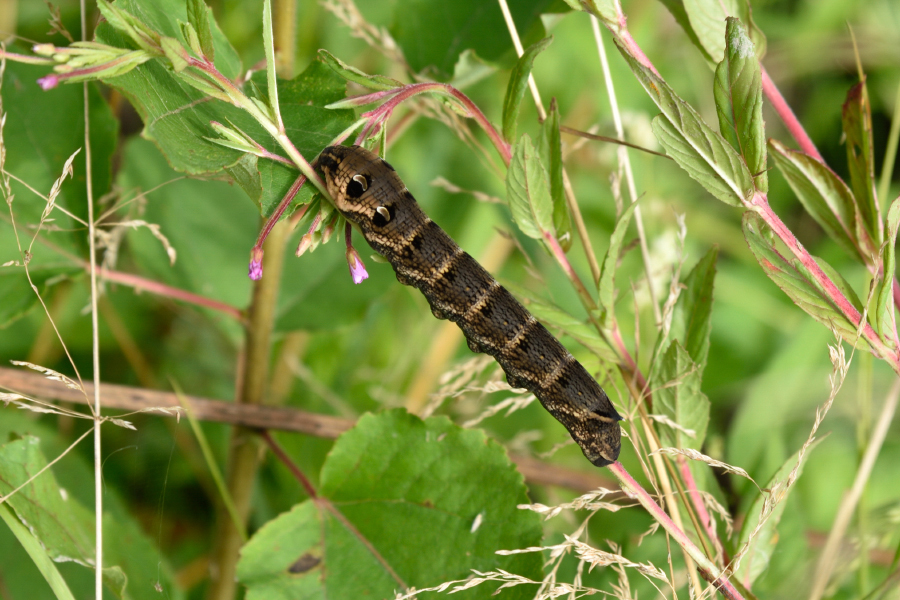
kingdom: Animalia
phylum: Arthropoda
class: Insecta
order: Lepidoptera
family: Sphingidae
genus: Deilephila
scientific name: Deilephila elpenor
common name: Elephant hawk-moth
